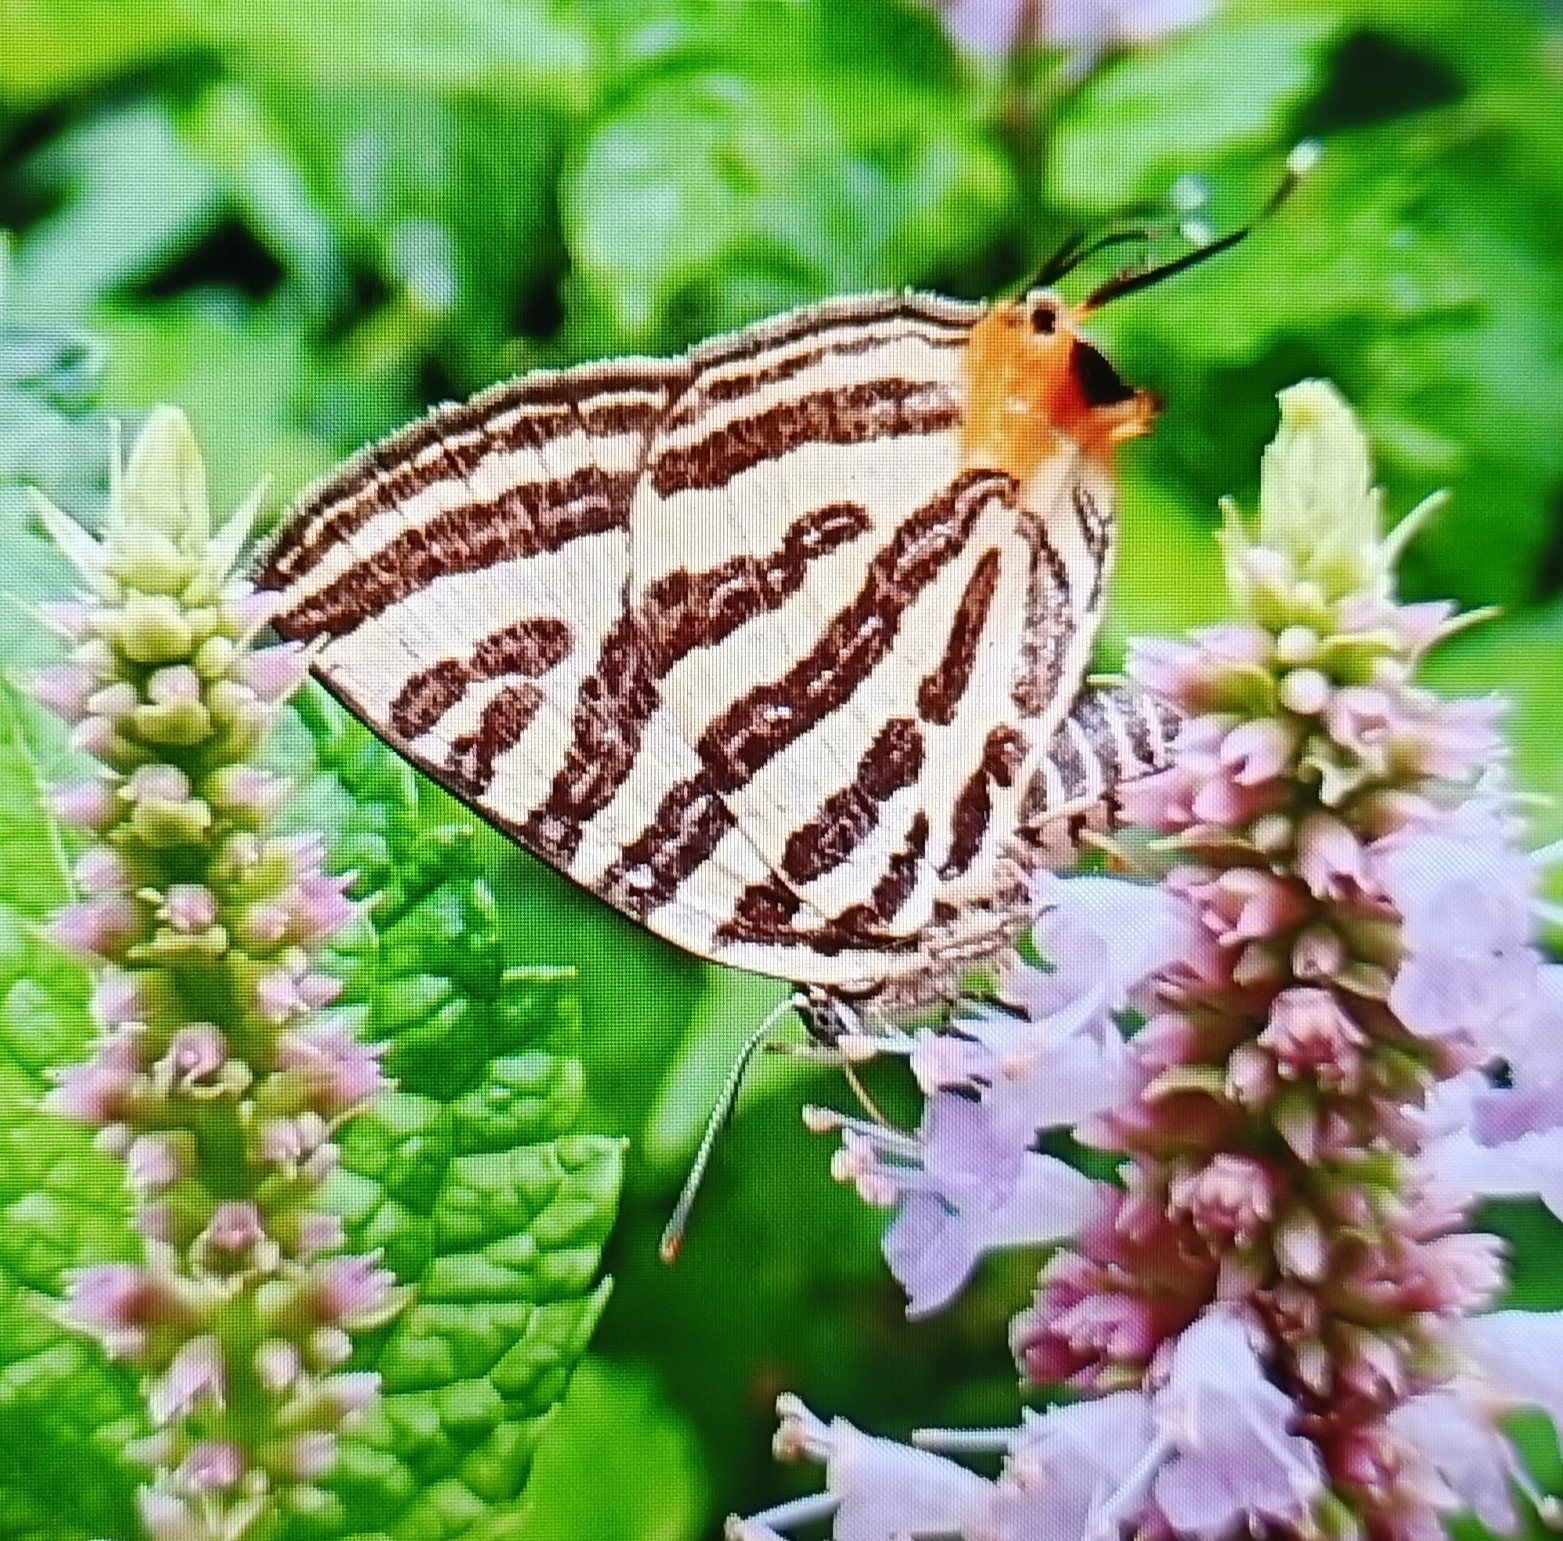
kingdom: Animalia
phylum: Arthropoda
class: Insecta
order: Lepidoptera
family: Lycaenidae
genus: Cigaritis
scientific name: Cigaritis lohita
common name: Long-banded silverline
